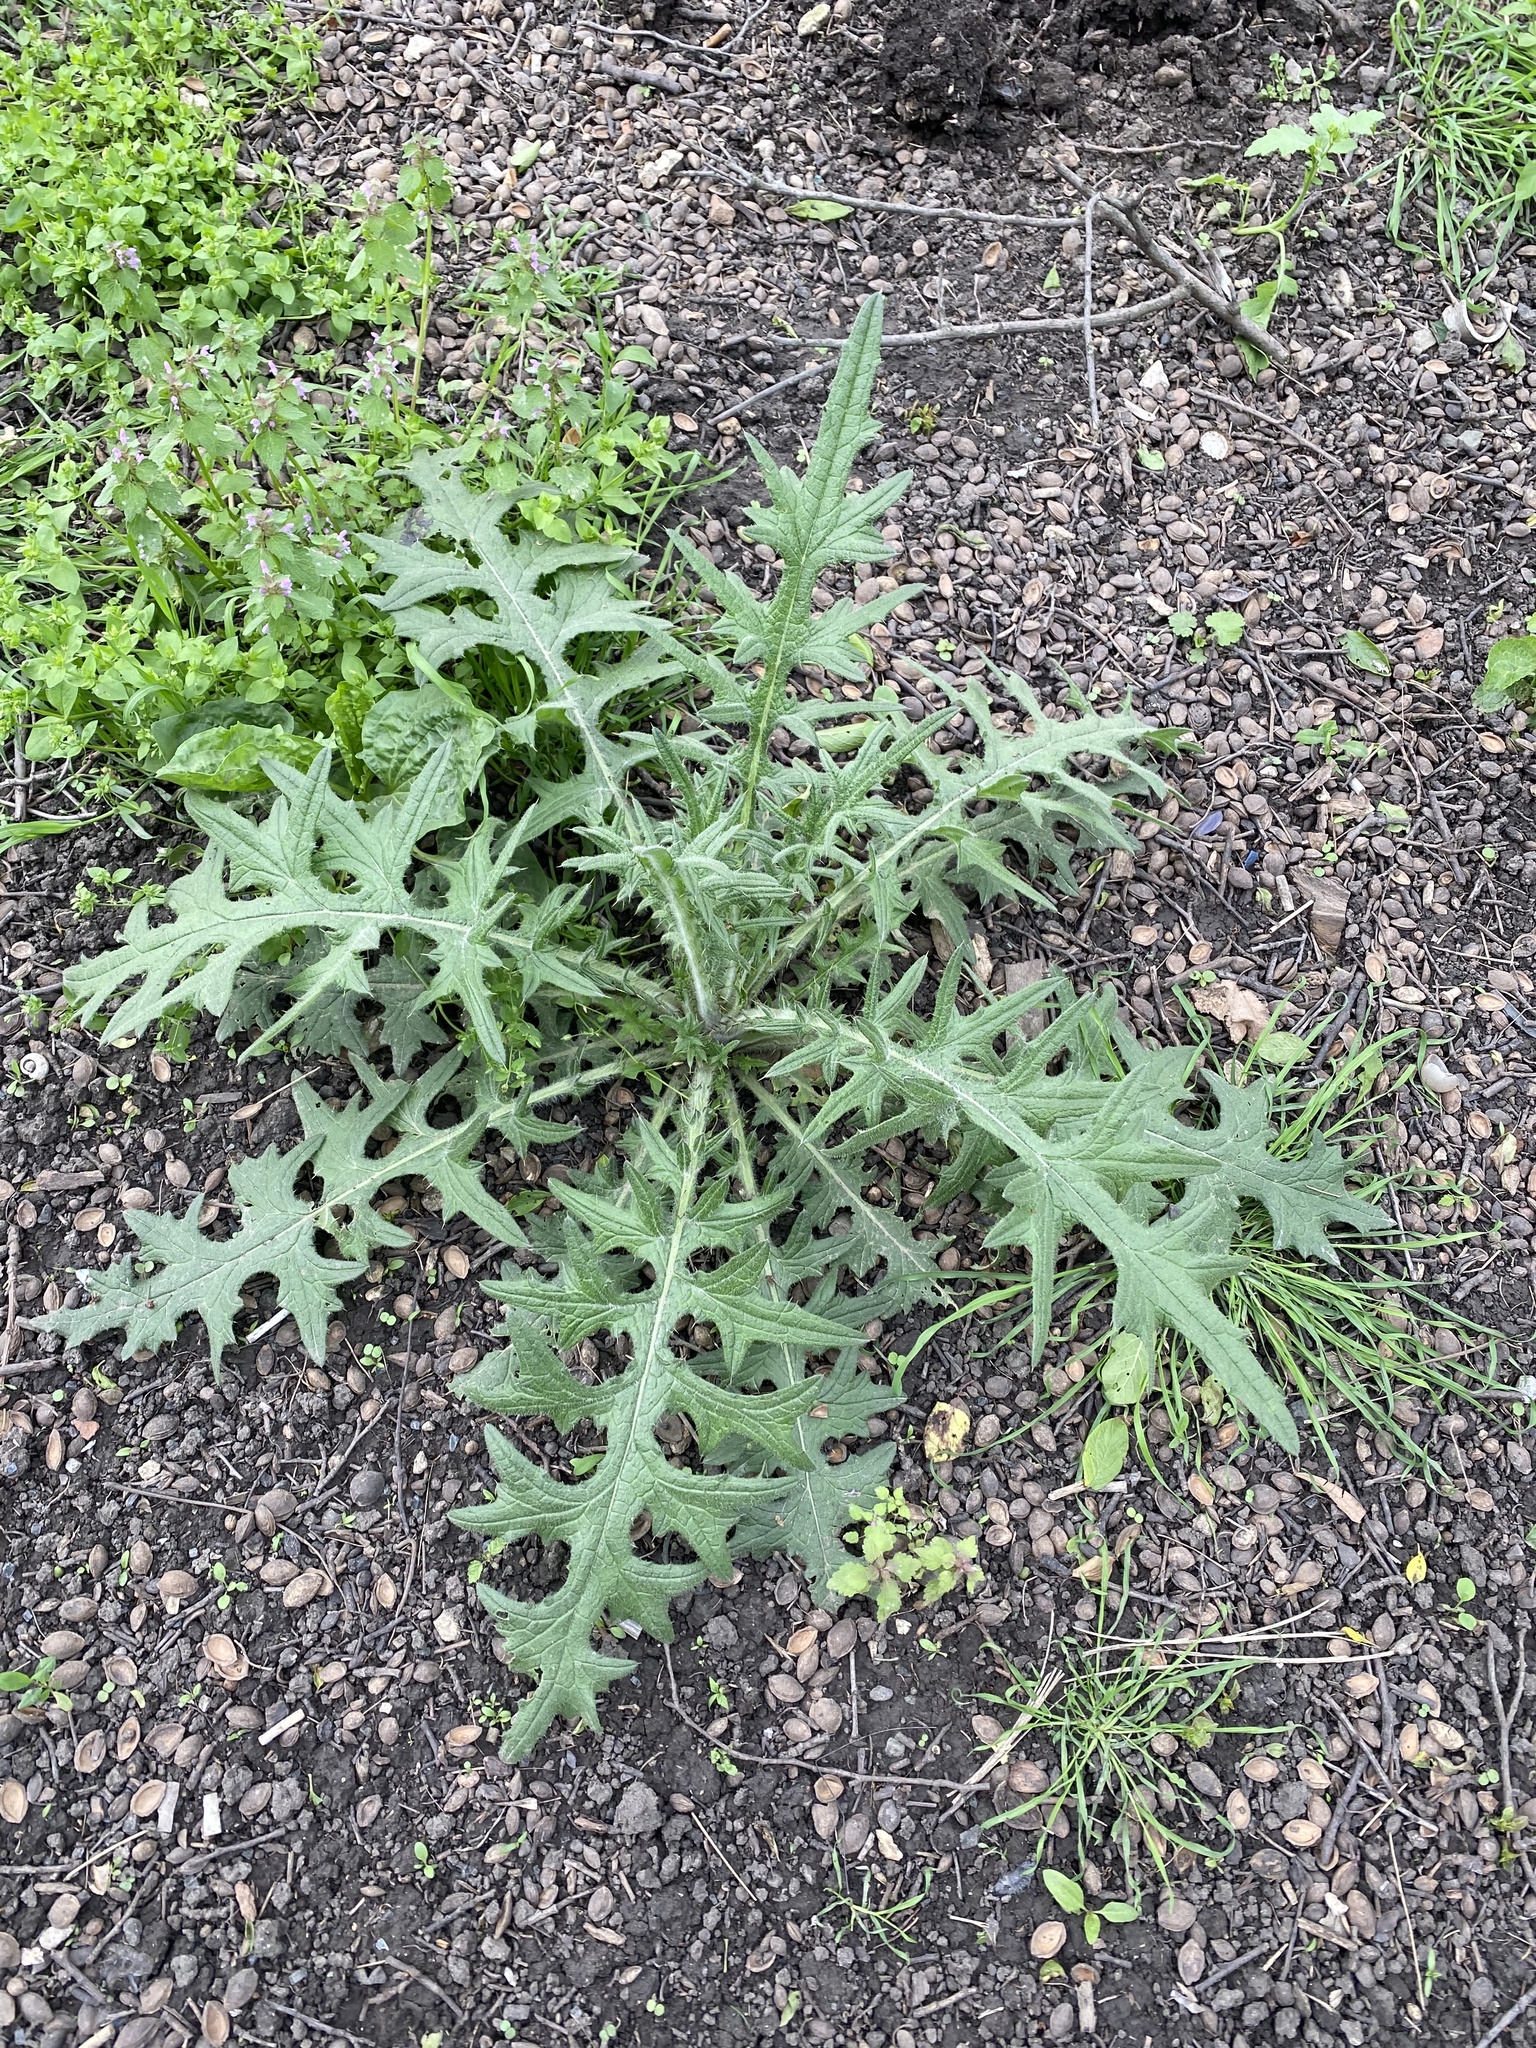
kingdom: Plantae
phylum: Tracheophyta
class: Magnoliopsida
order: Asterales
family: Asteraceae
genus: Cirsium
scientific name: Cirsium vulgare
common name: Bull thistle
